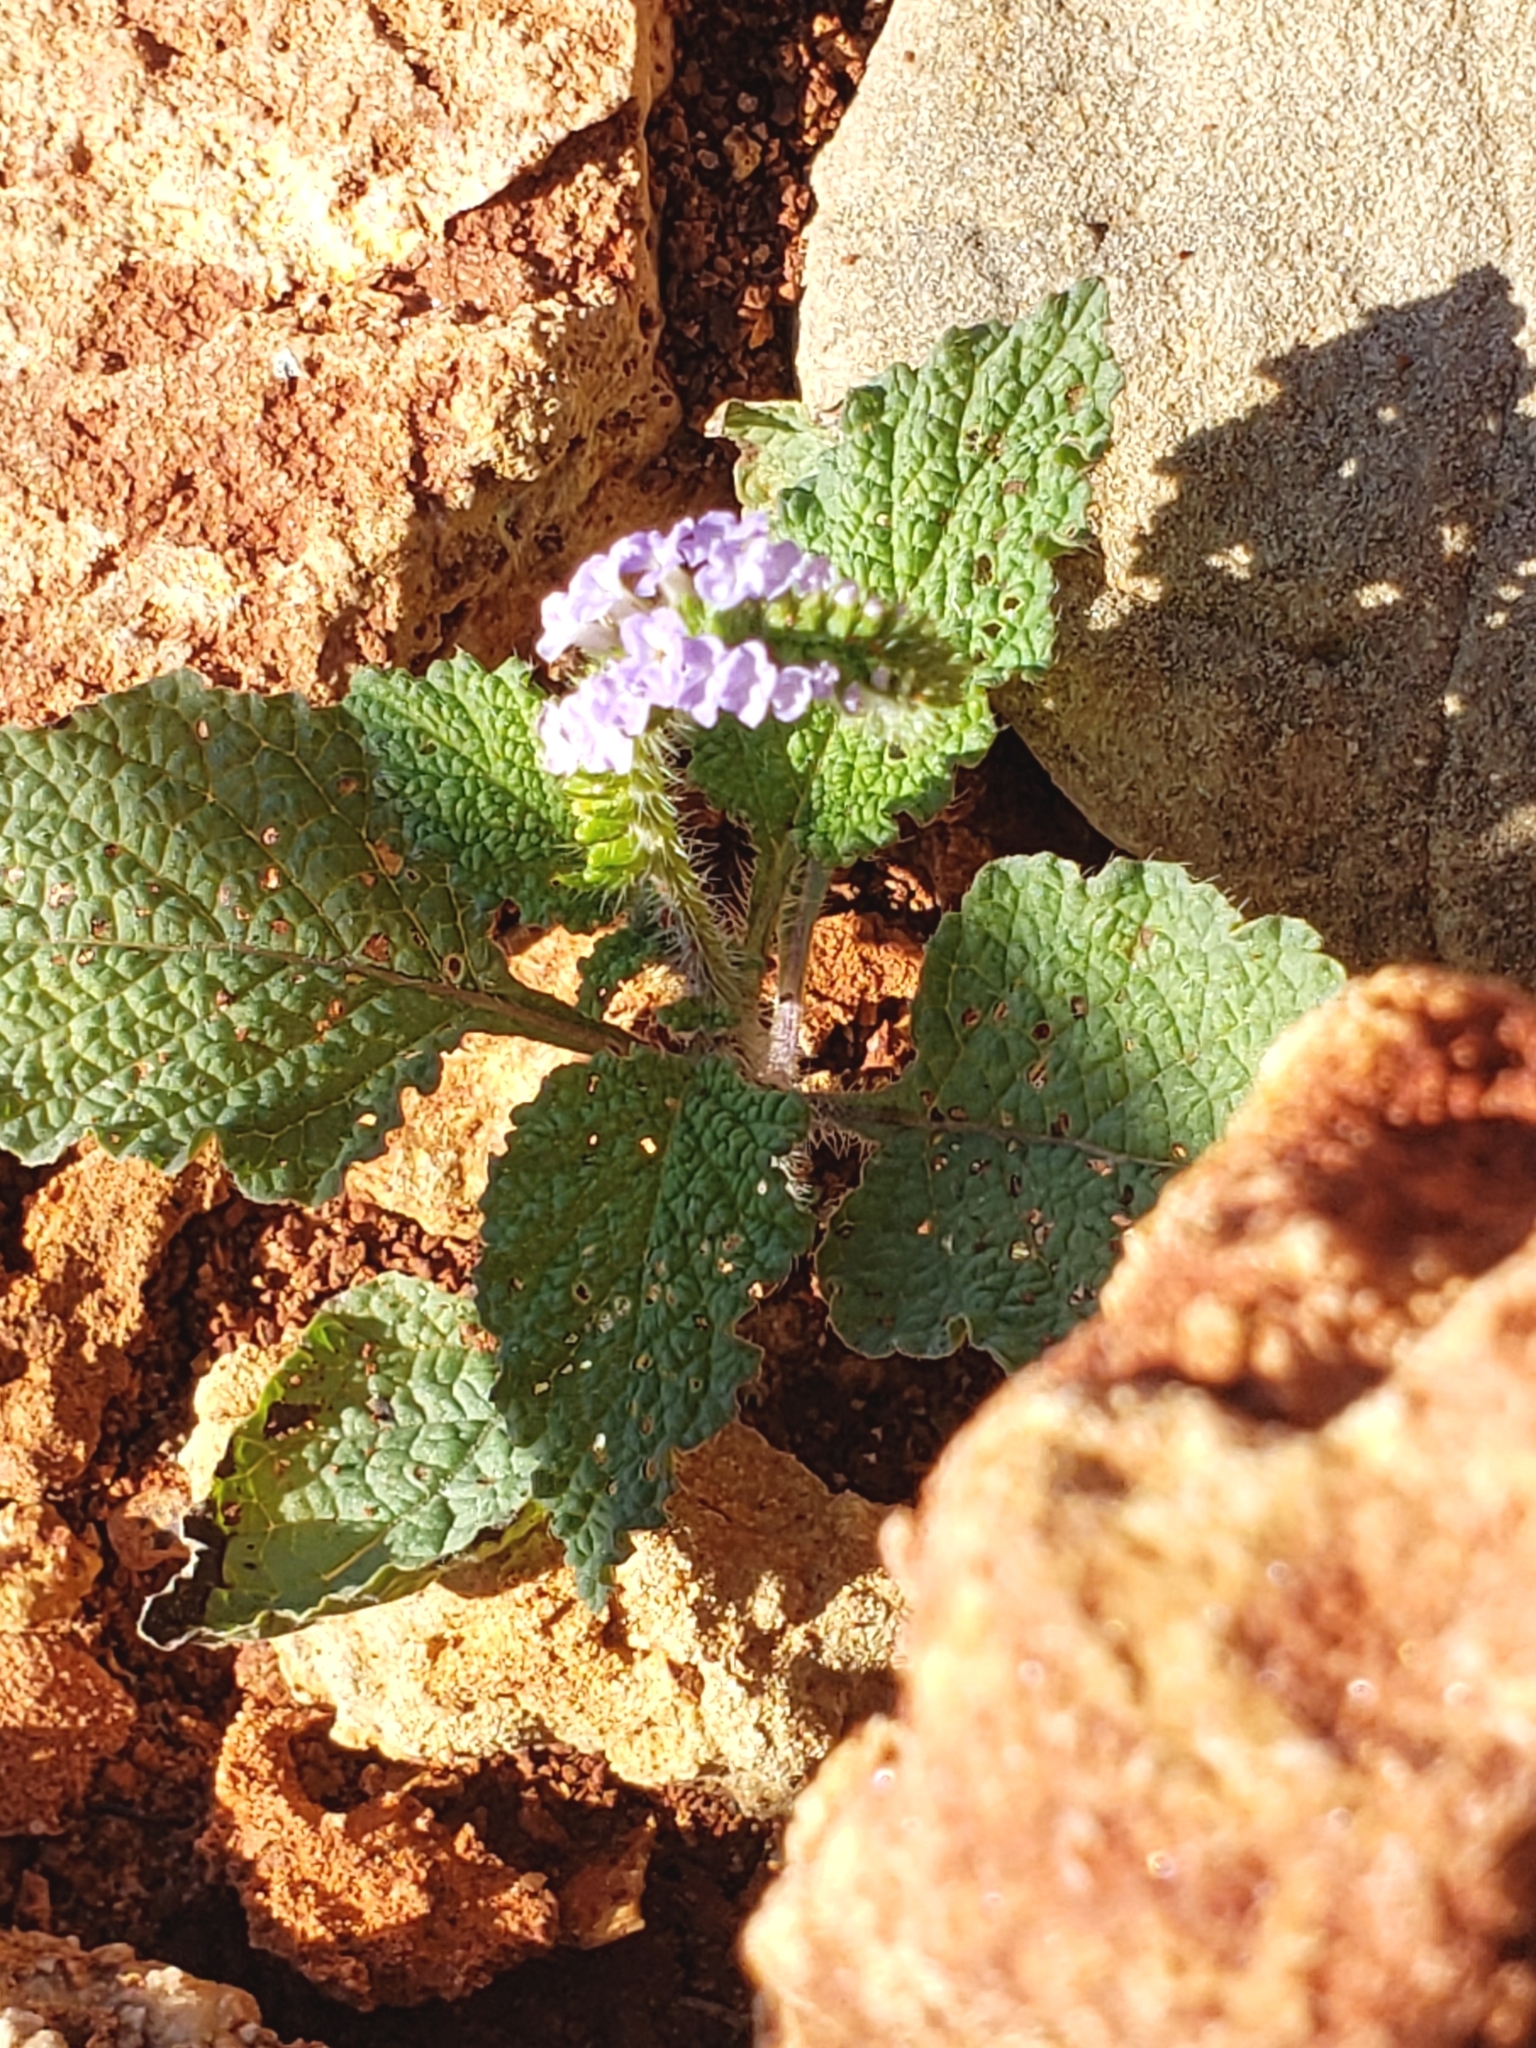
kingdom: Plantae
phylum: Tracheophyta
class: Magnoliopsida
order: Boraginales
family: Heliotropiaceae
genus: Heliotropium
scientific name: Heliotropium indicum
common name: Indian heliotrope
